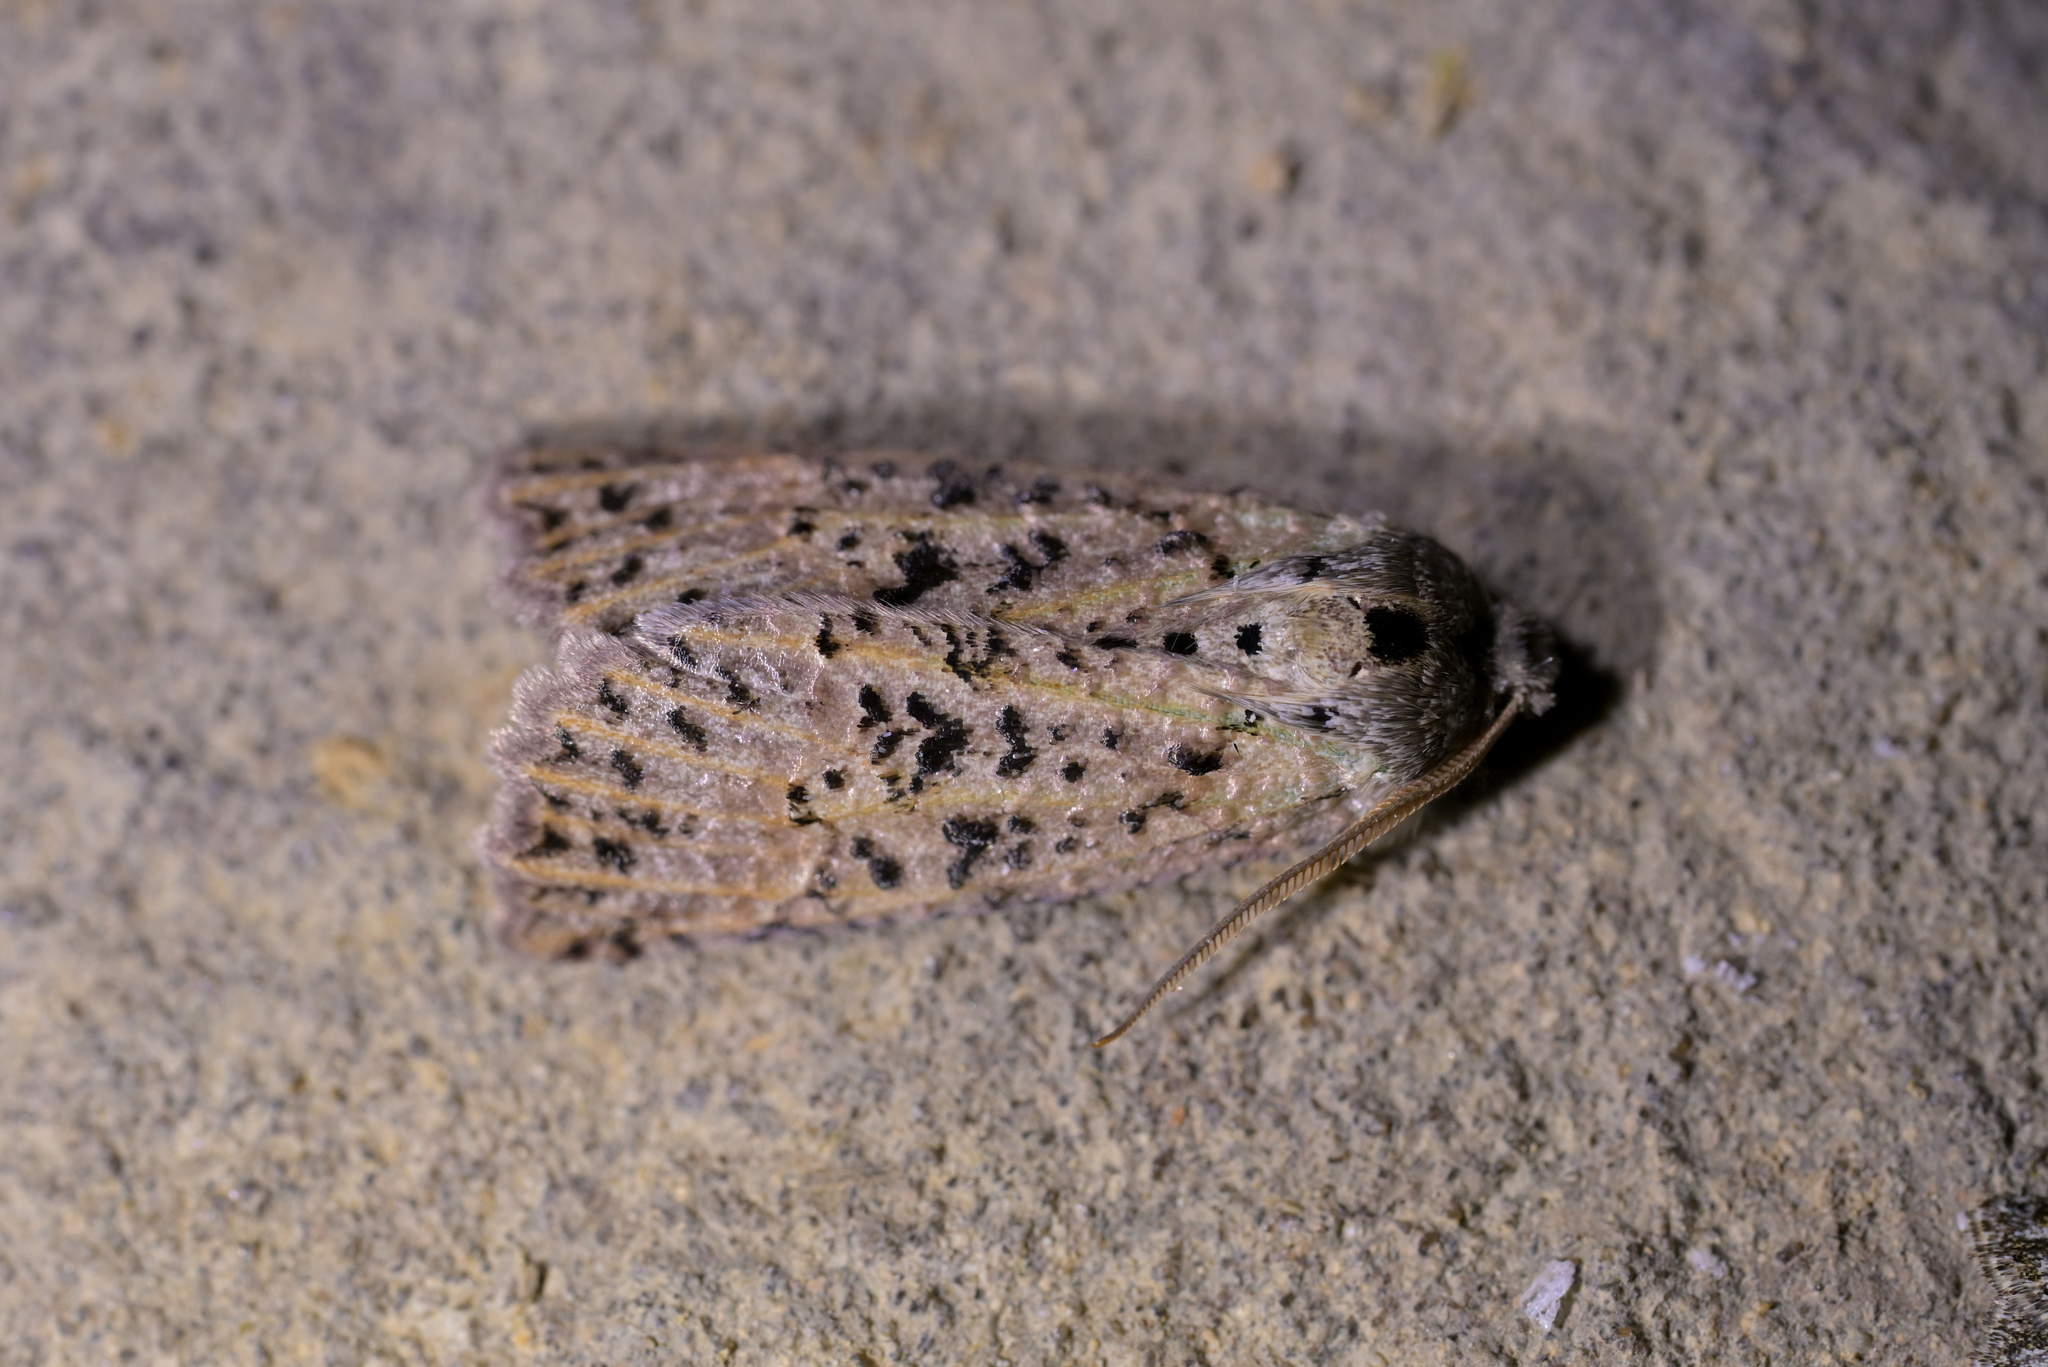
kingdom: Animalia
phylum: Arthropoda
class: Insecta
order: Lepidoptera
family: Geometridae
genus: Declana
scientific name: Declana floccosa
